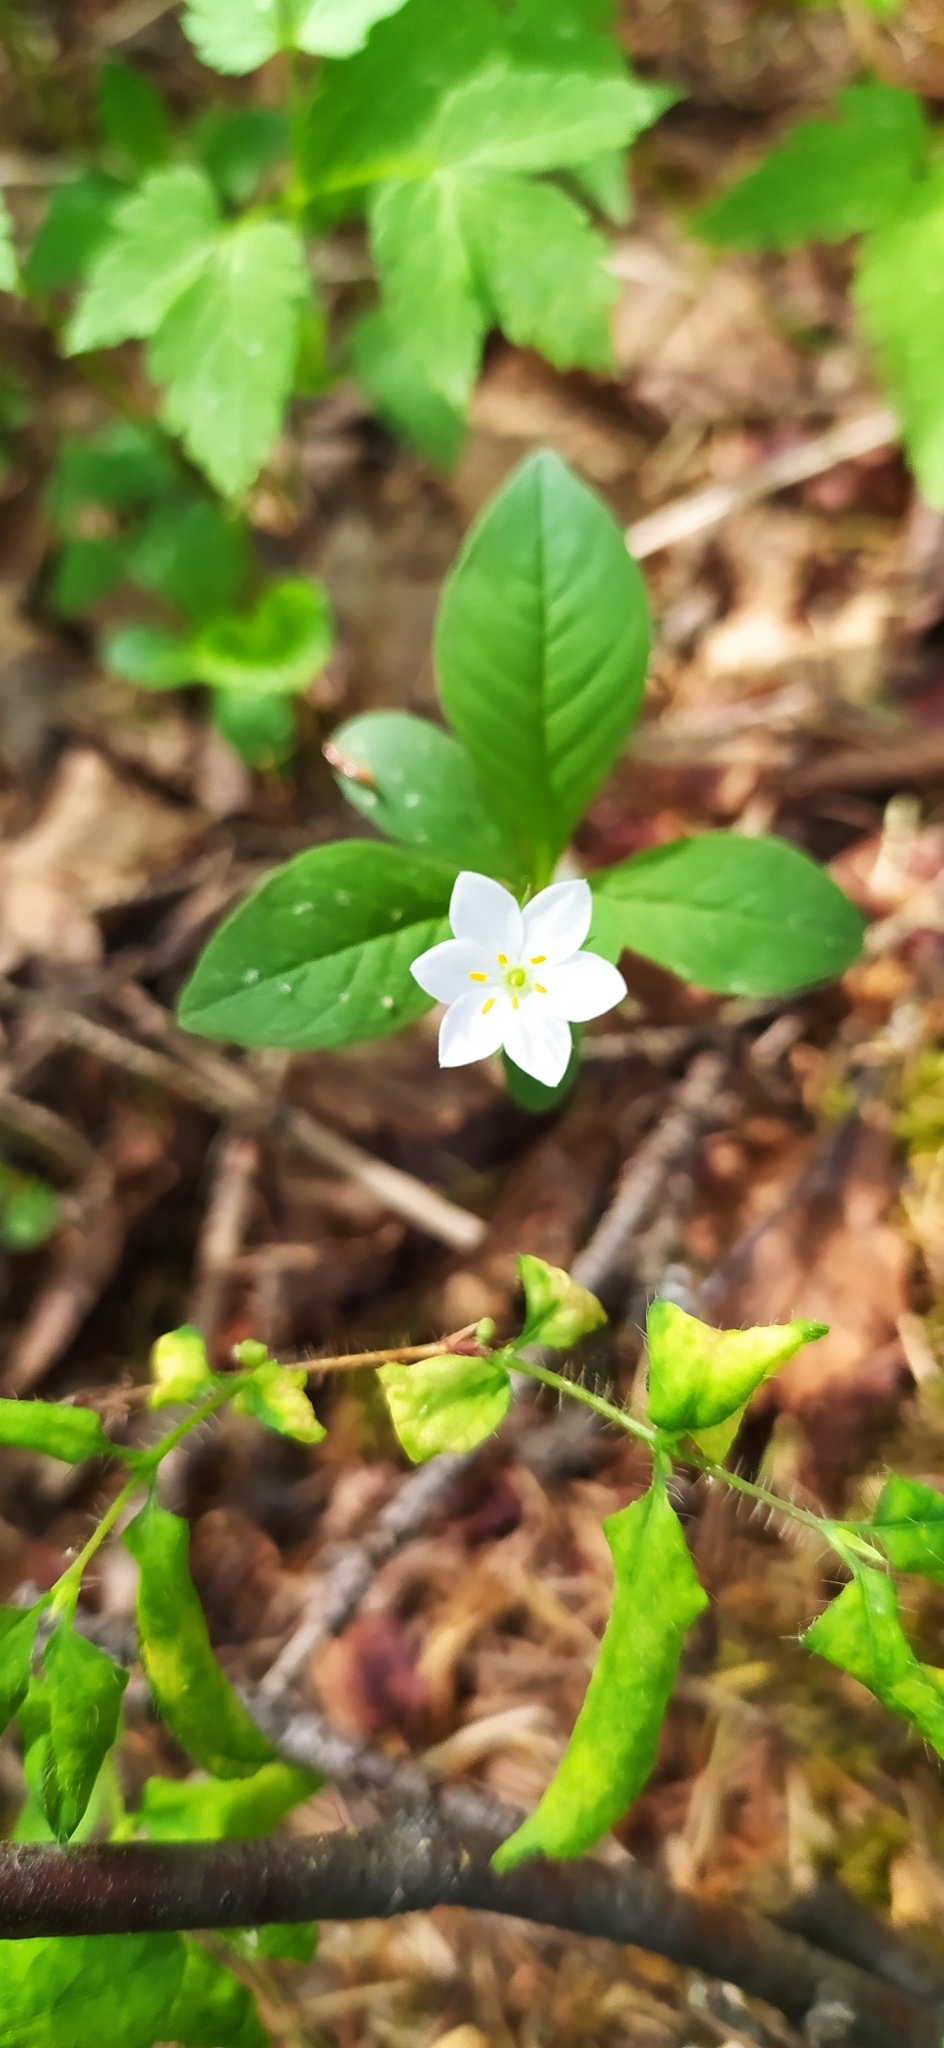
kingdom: Plantae
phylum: Tracheophyta
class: Magnoliopsida
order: Ericales
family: Primulaceae
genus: Lysimachia
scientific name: Lysimachia europaea
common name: Arctic starflower
